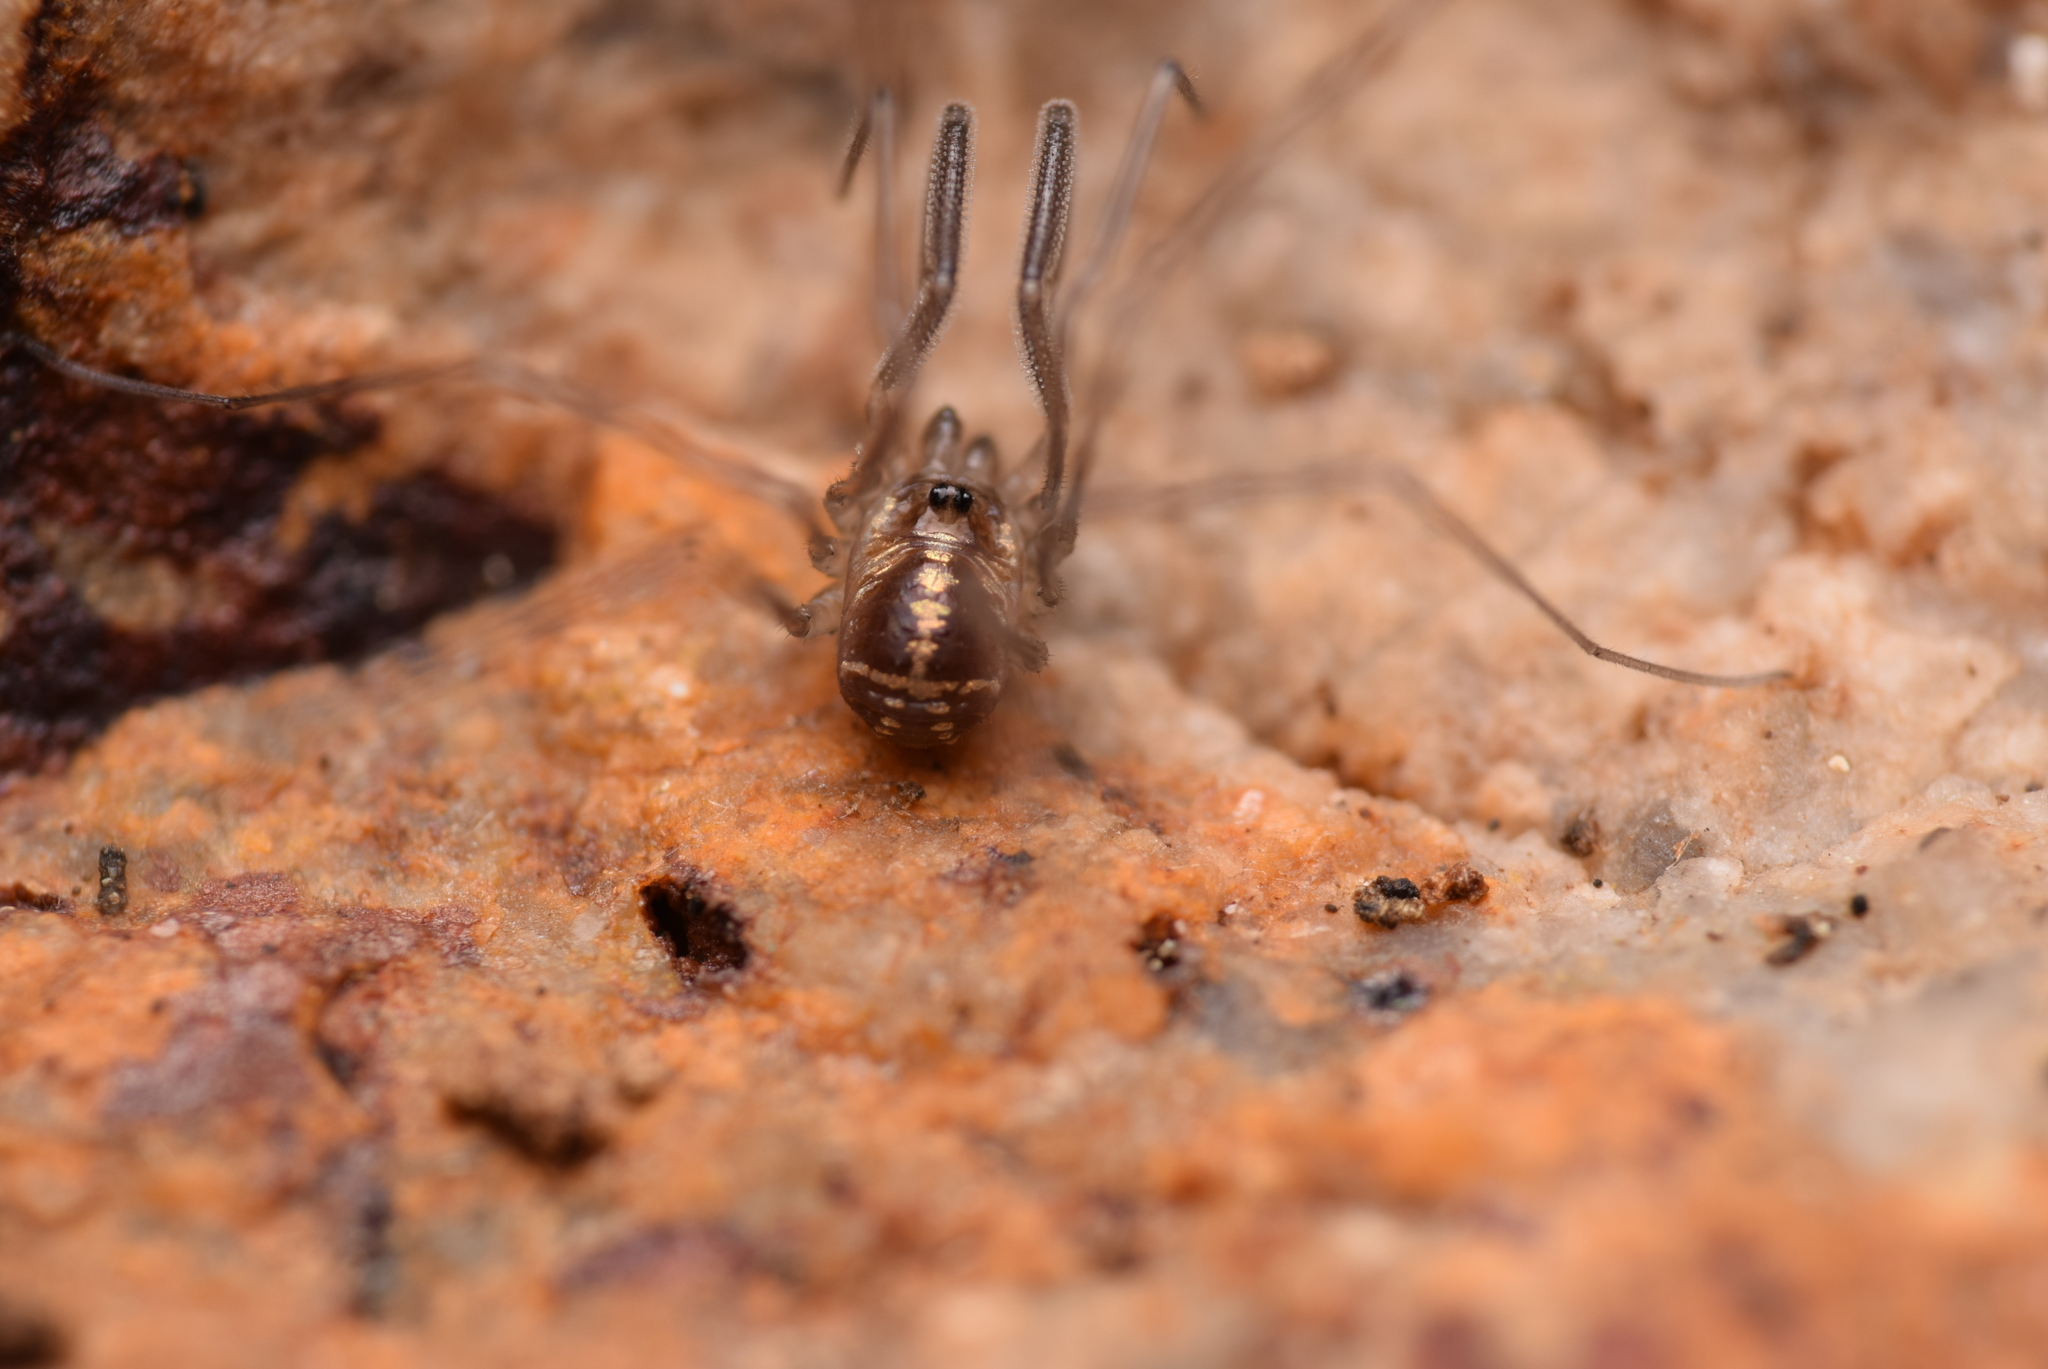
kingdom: Animalia
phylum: Arthropoda
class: Arachnida
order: Opiliones
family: Nemastomatidae
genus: Mitostoma
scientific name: Mitostoma pyrenaeum
